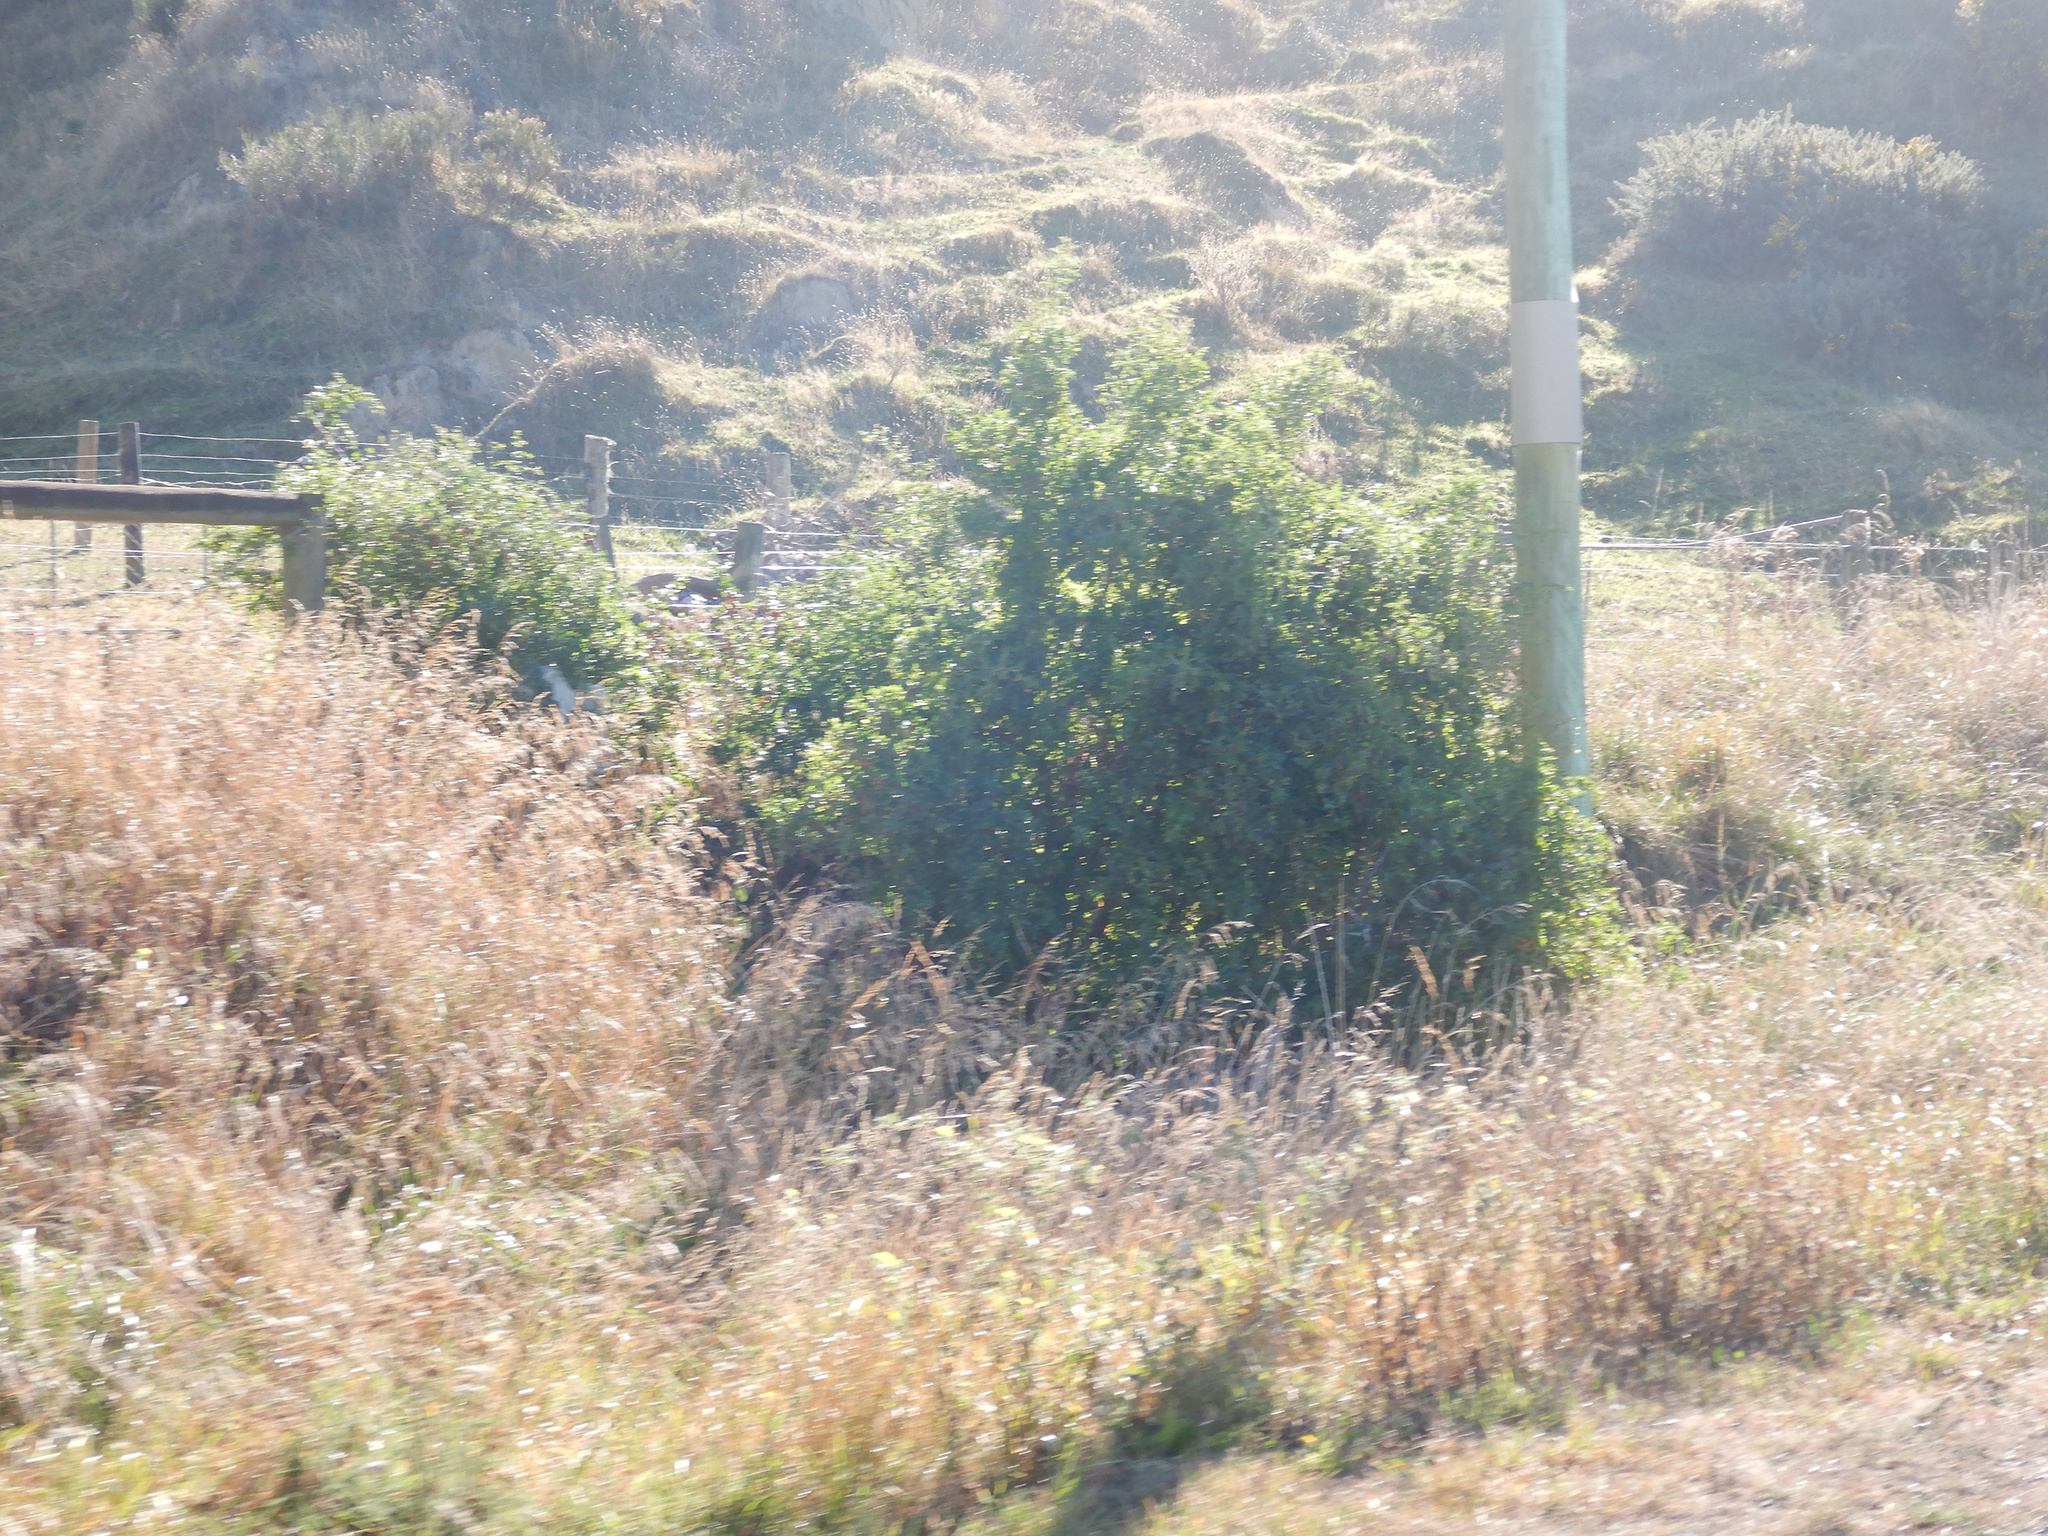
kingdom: Plantae
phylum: Tracheophyta
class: Magnoliopsida
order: Solanales
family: Solanaceae
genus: Lycium
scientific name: Lycium ferocissimum
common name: African boxthorn
